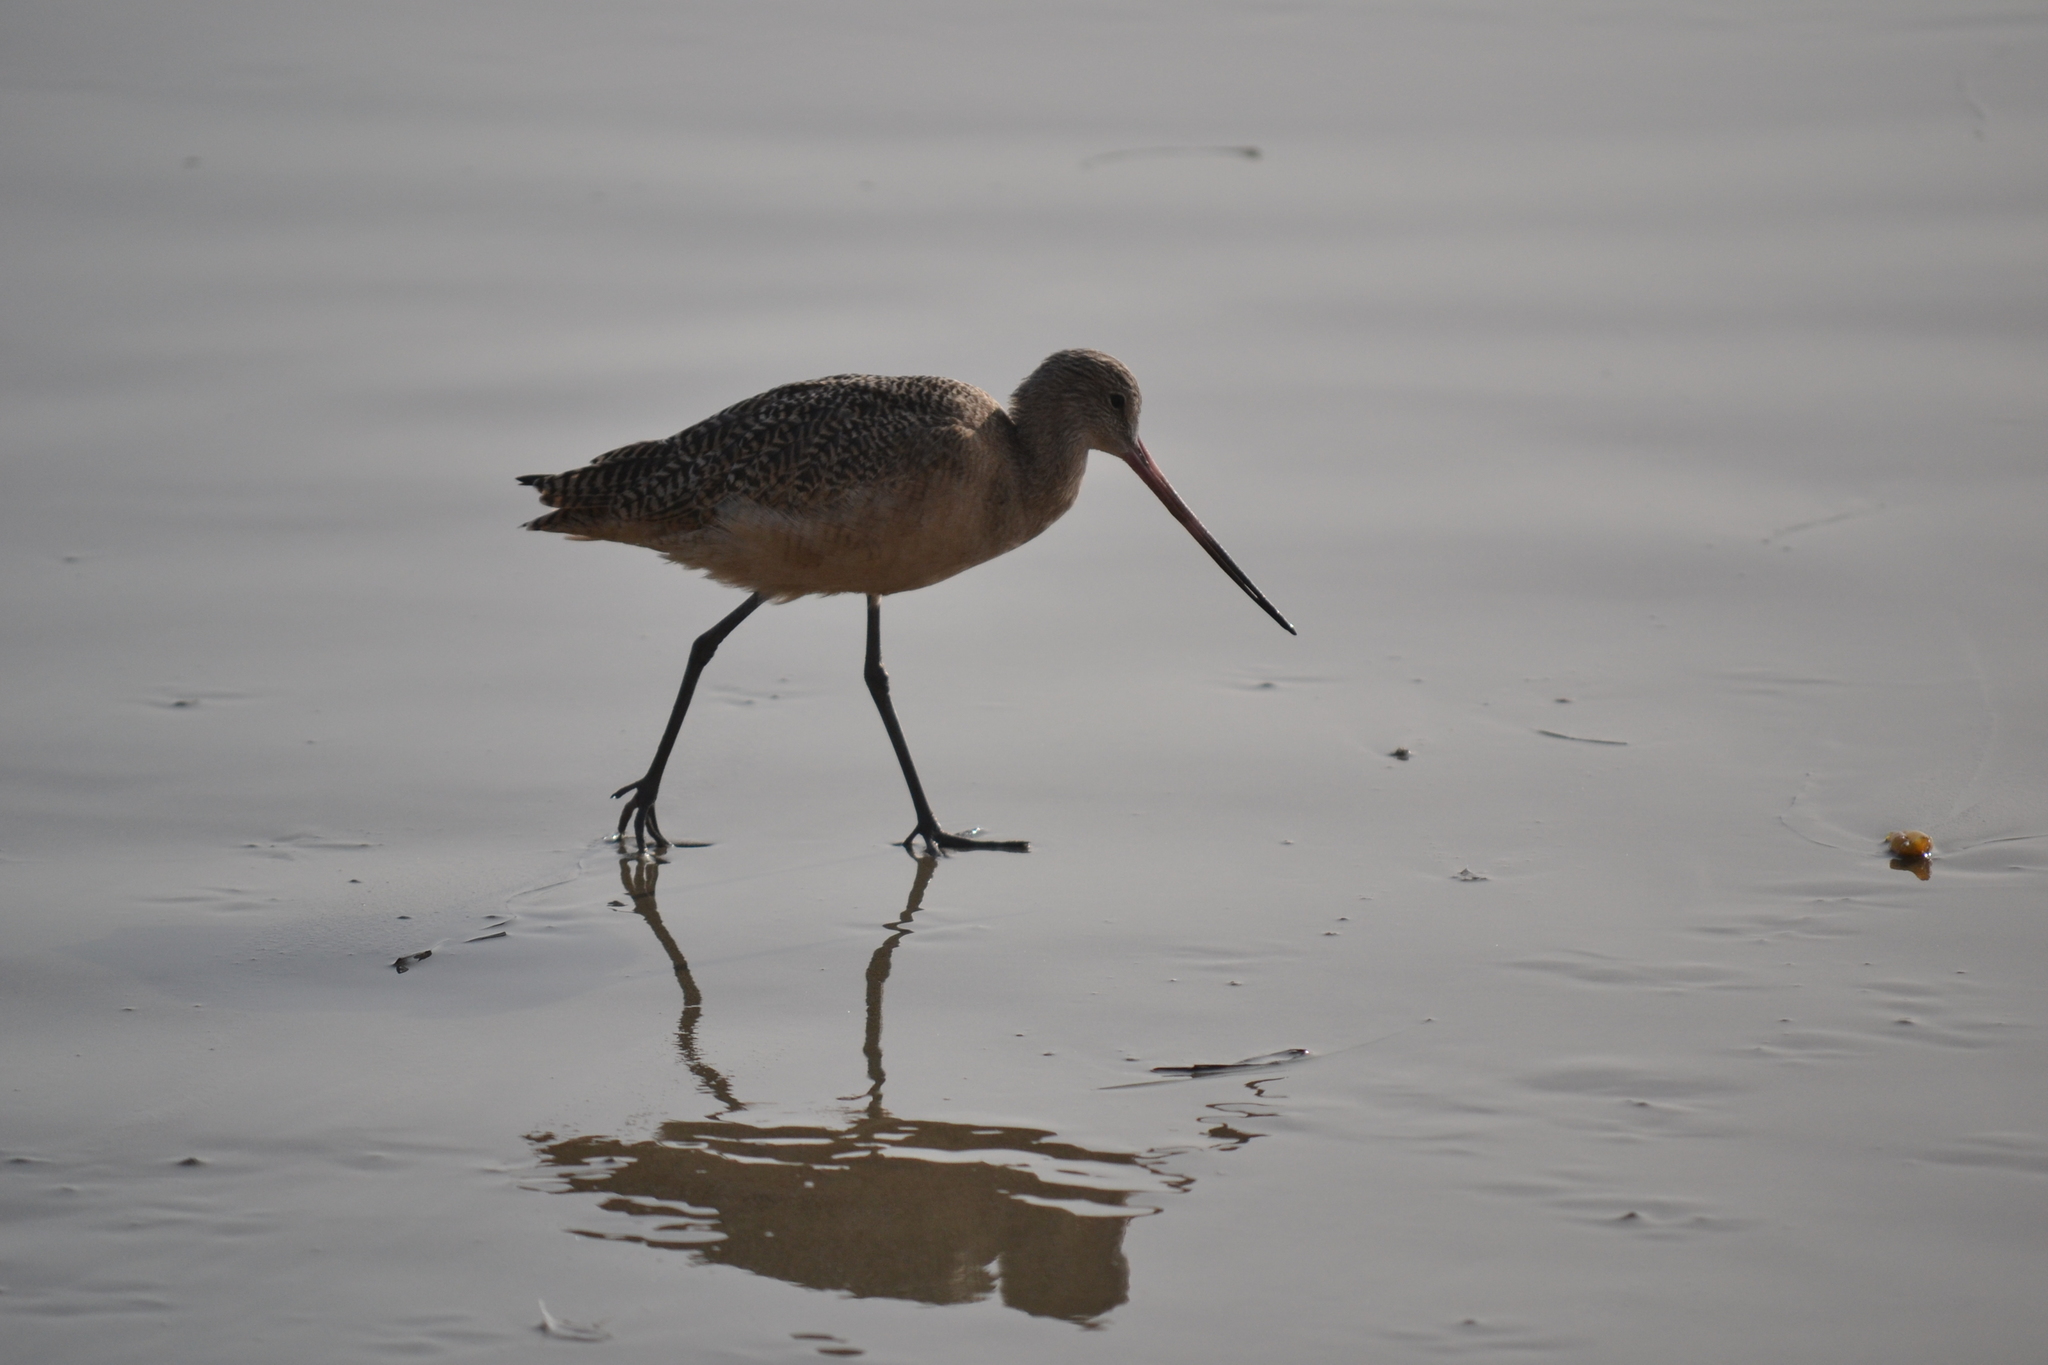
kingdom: Animalia
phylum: Chordata
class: Aves
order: Charadriiformes
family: Scolopacidae
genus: Limosa
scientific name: Limosa fedoa
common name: Marbled godwit
